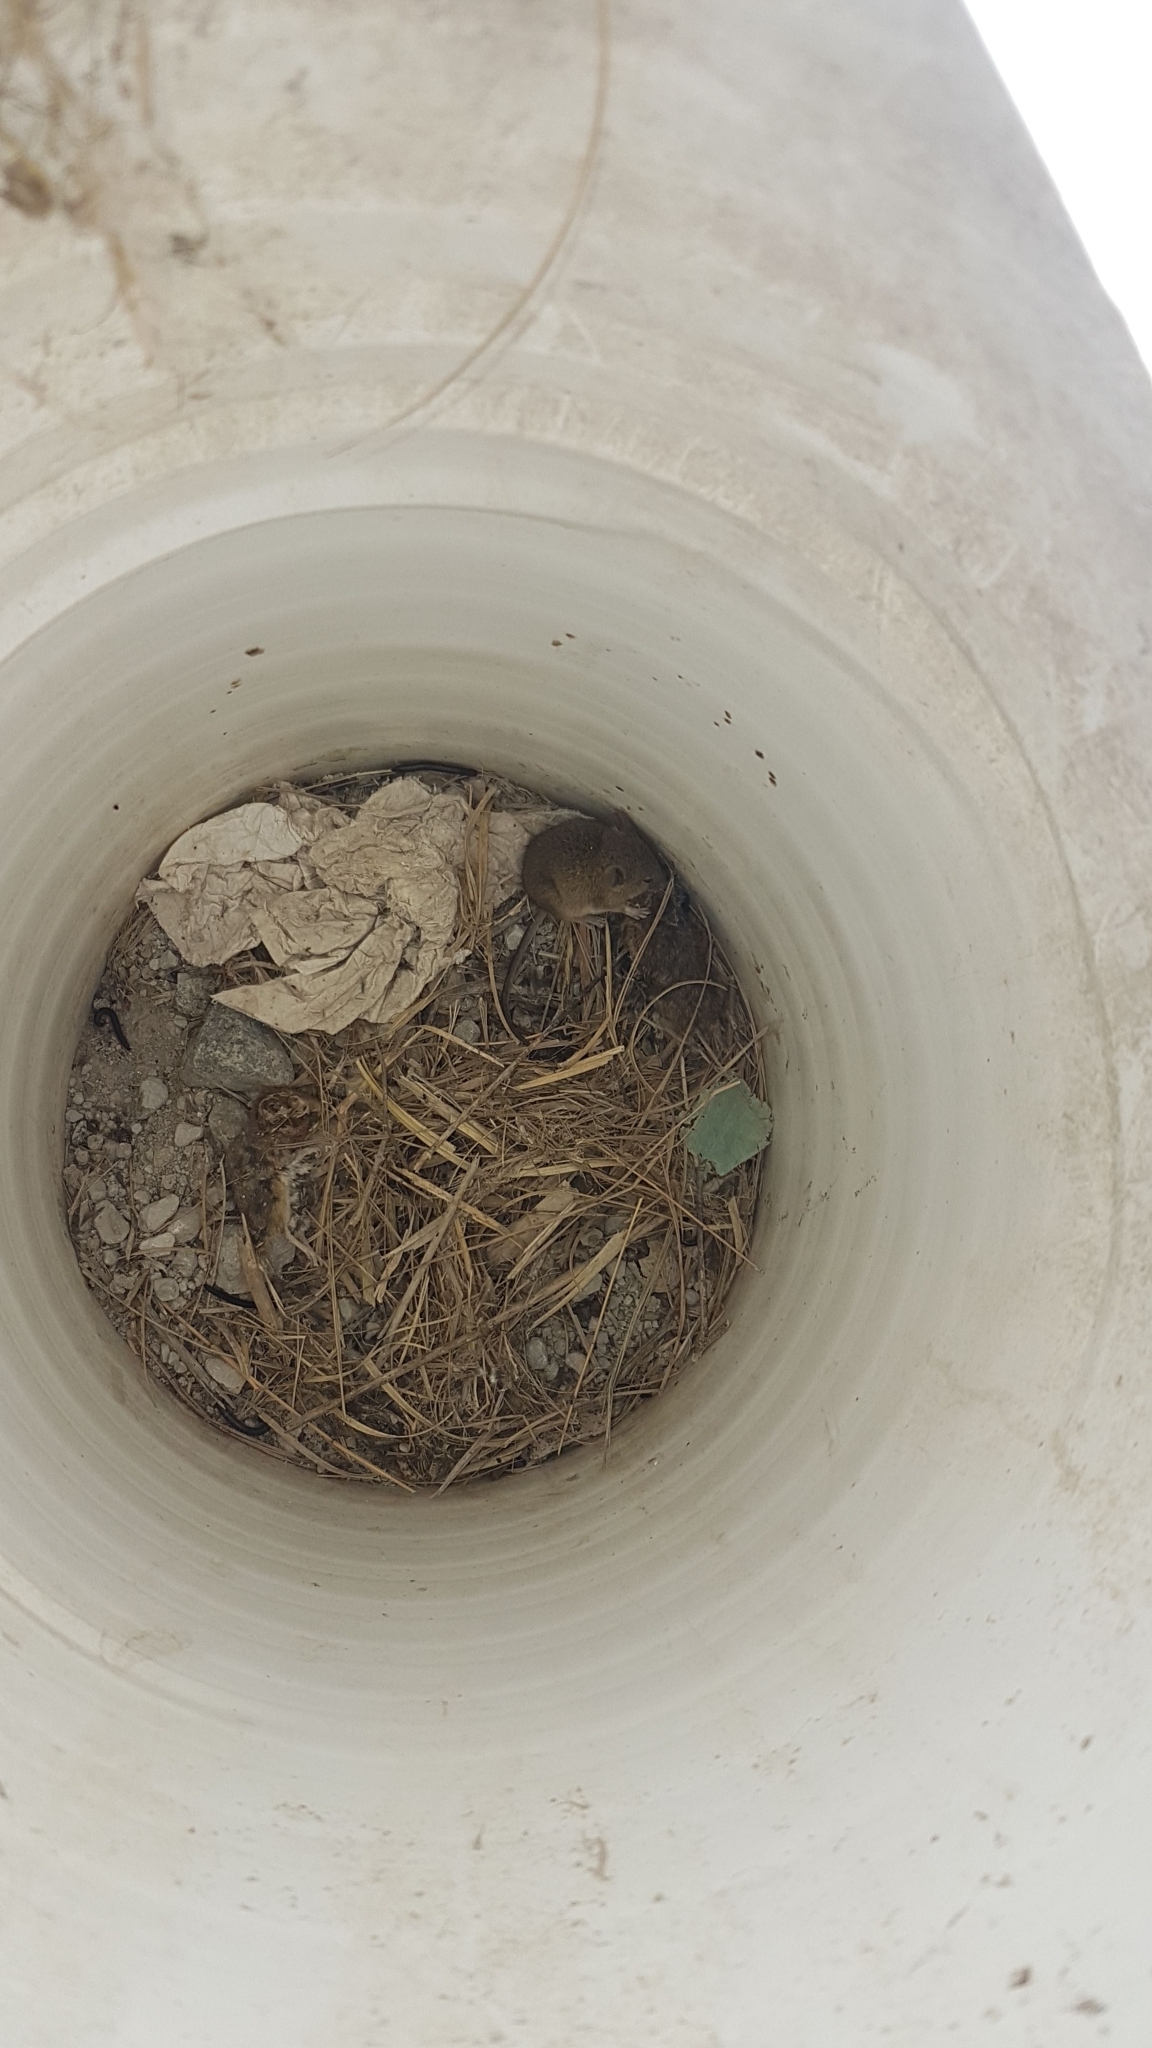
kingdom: Animalia
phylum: Chordata
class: Mammalia
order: Rodentia
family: Muridae
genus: Mus
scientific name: Mus musculus
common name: House mouse
